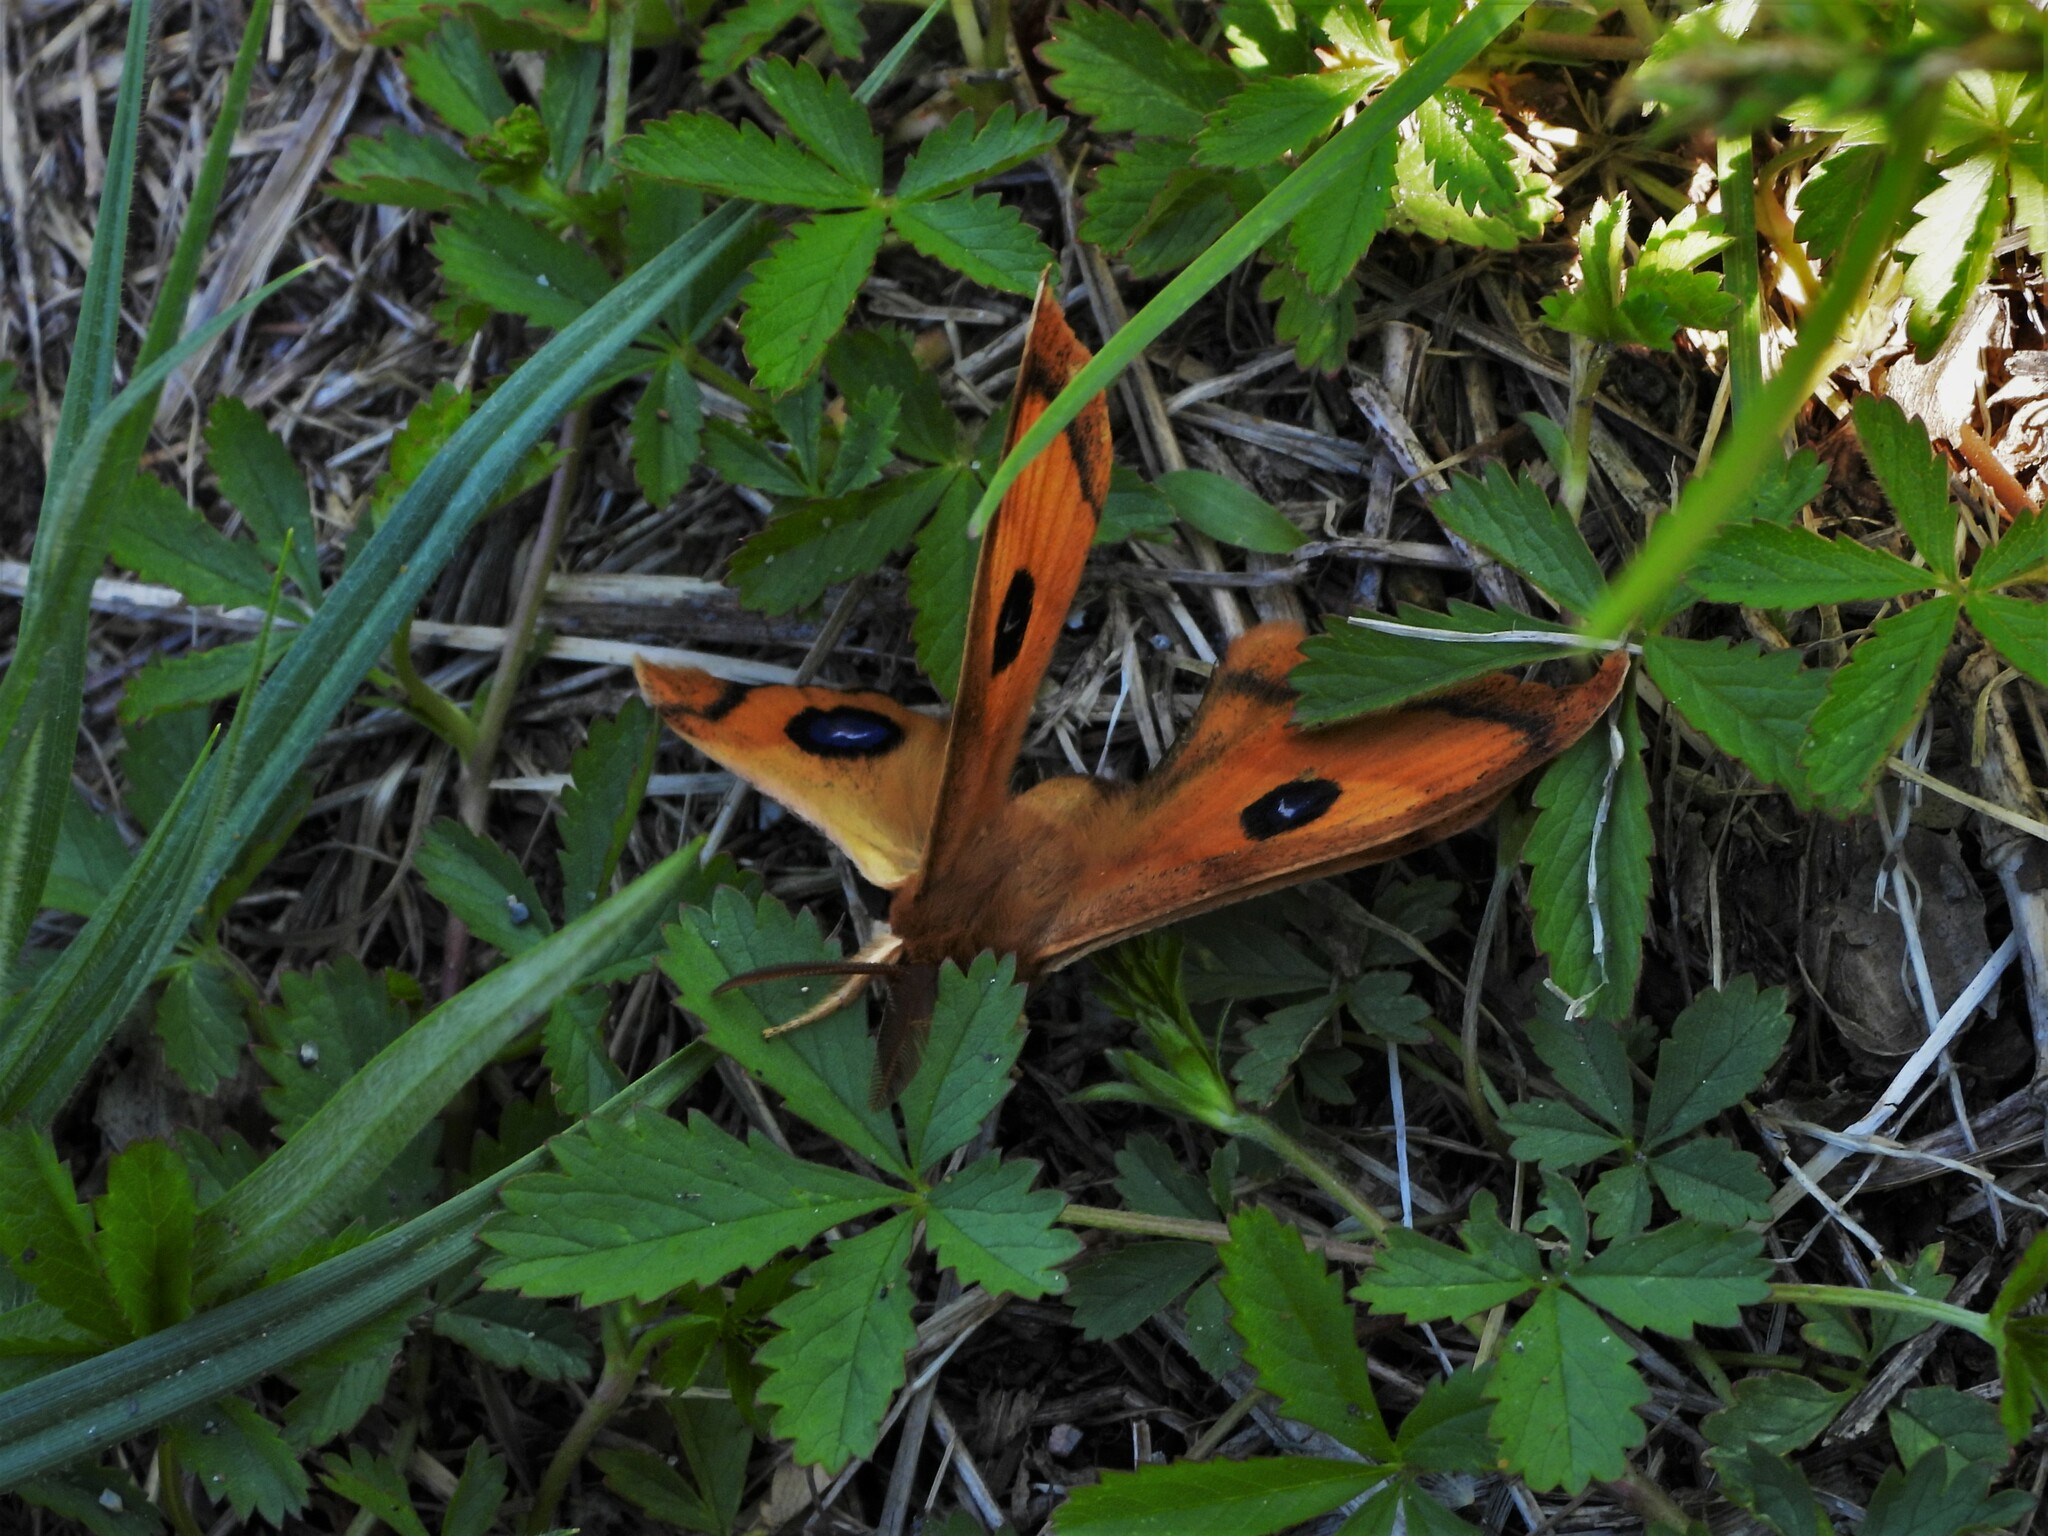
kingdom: Animalia
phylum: Arthropoda
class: Insecta
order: Lepidoptera
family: Saturniidae
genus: Aglia
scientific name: Aglia tau
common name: Tau emperor
